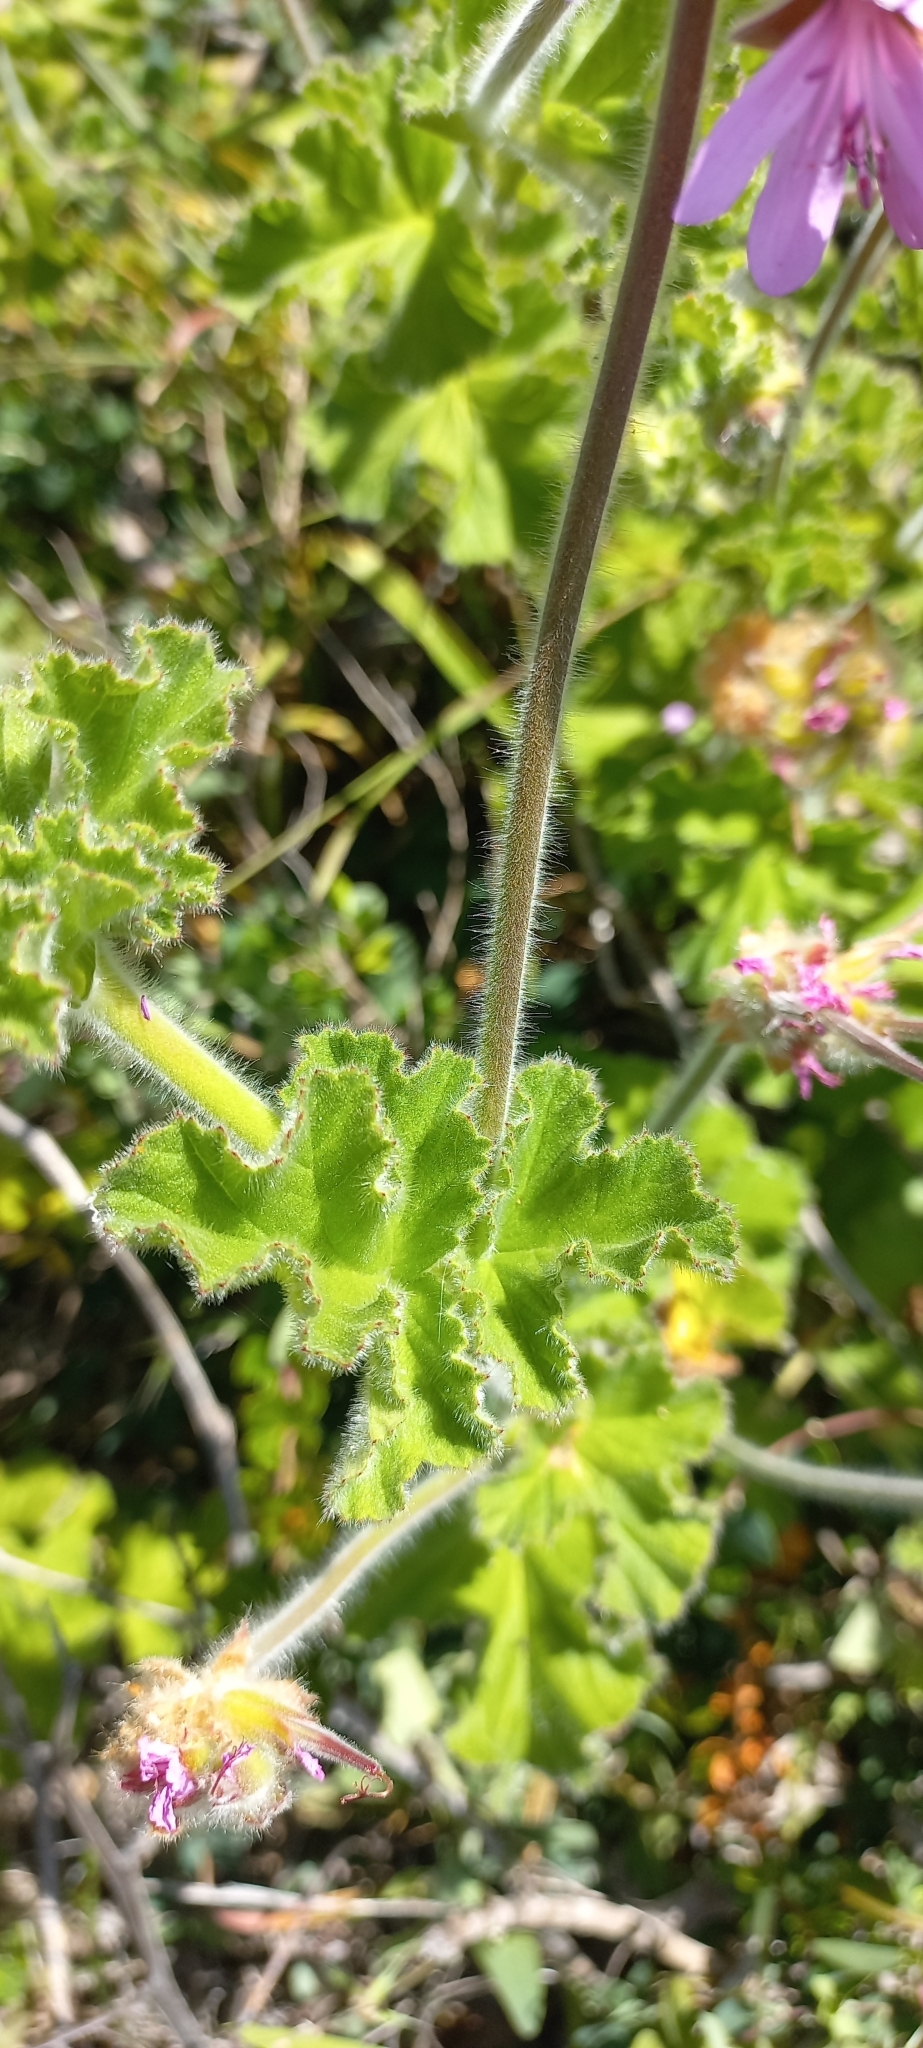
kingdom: Plantae
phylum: Tracheophyta
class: Magnoliopsida
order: Geraniales
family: Geraniaceae
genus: Pelargonium
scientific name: Pelargonium capitatum
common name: Rose scented geranium
